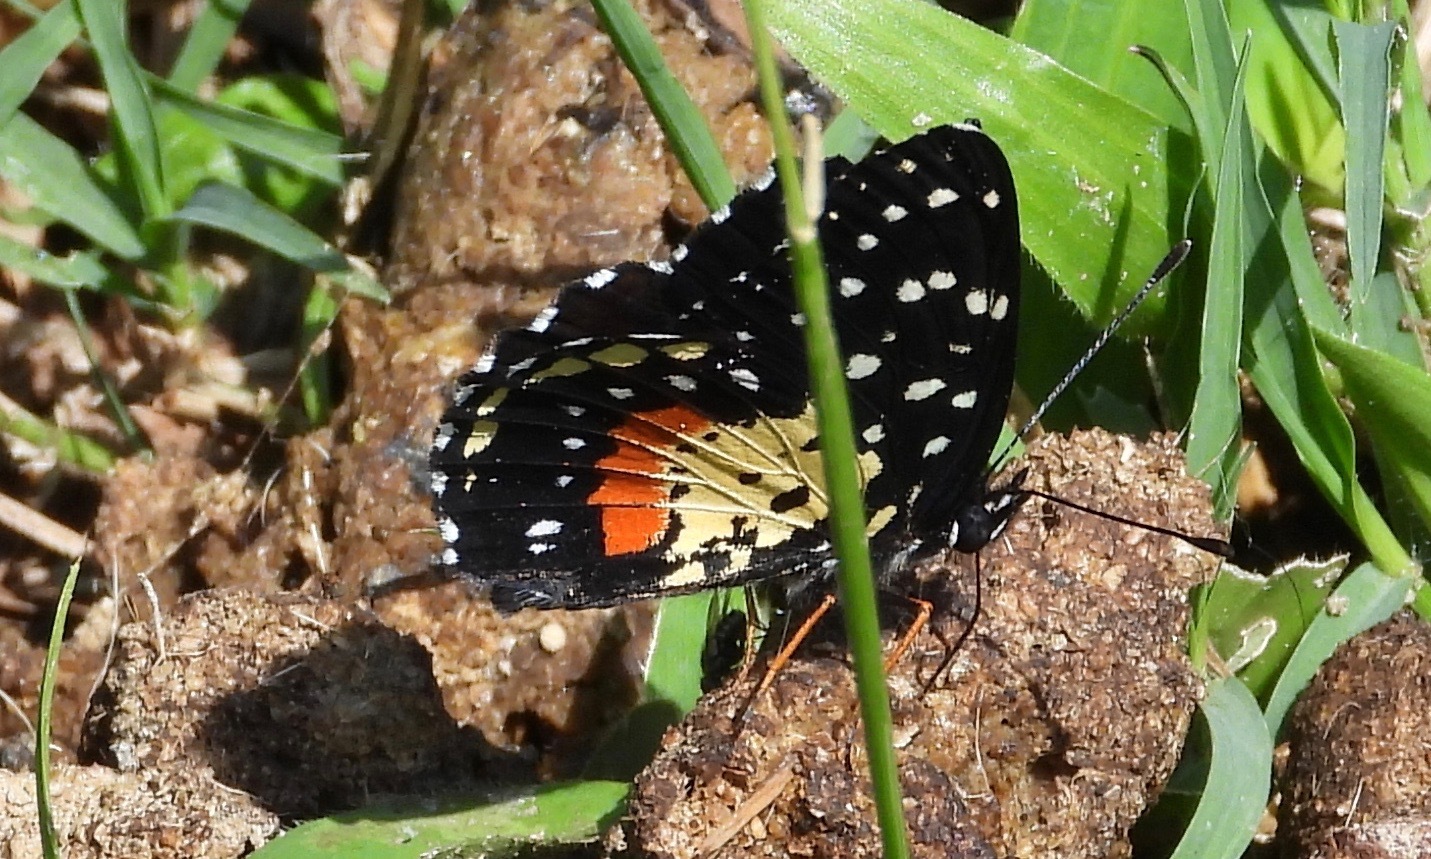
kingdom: Animalia
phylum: Arthropoda
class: Insecta
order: Lepidoptera
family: Nymphalidae
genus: Chlosyne
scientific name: Chlosyne janais
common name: Crimson patch
